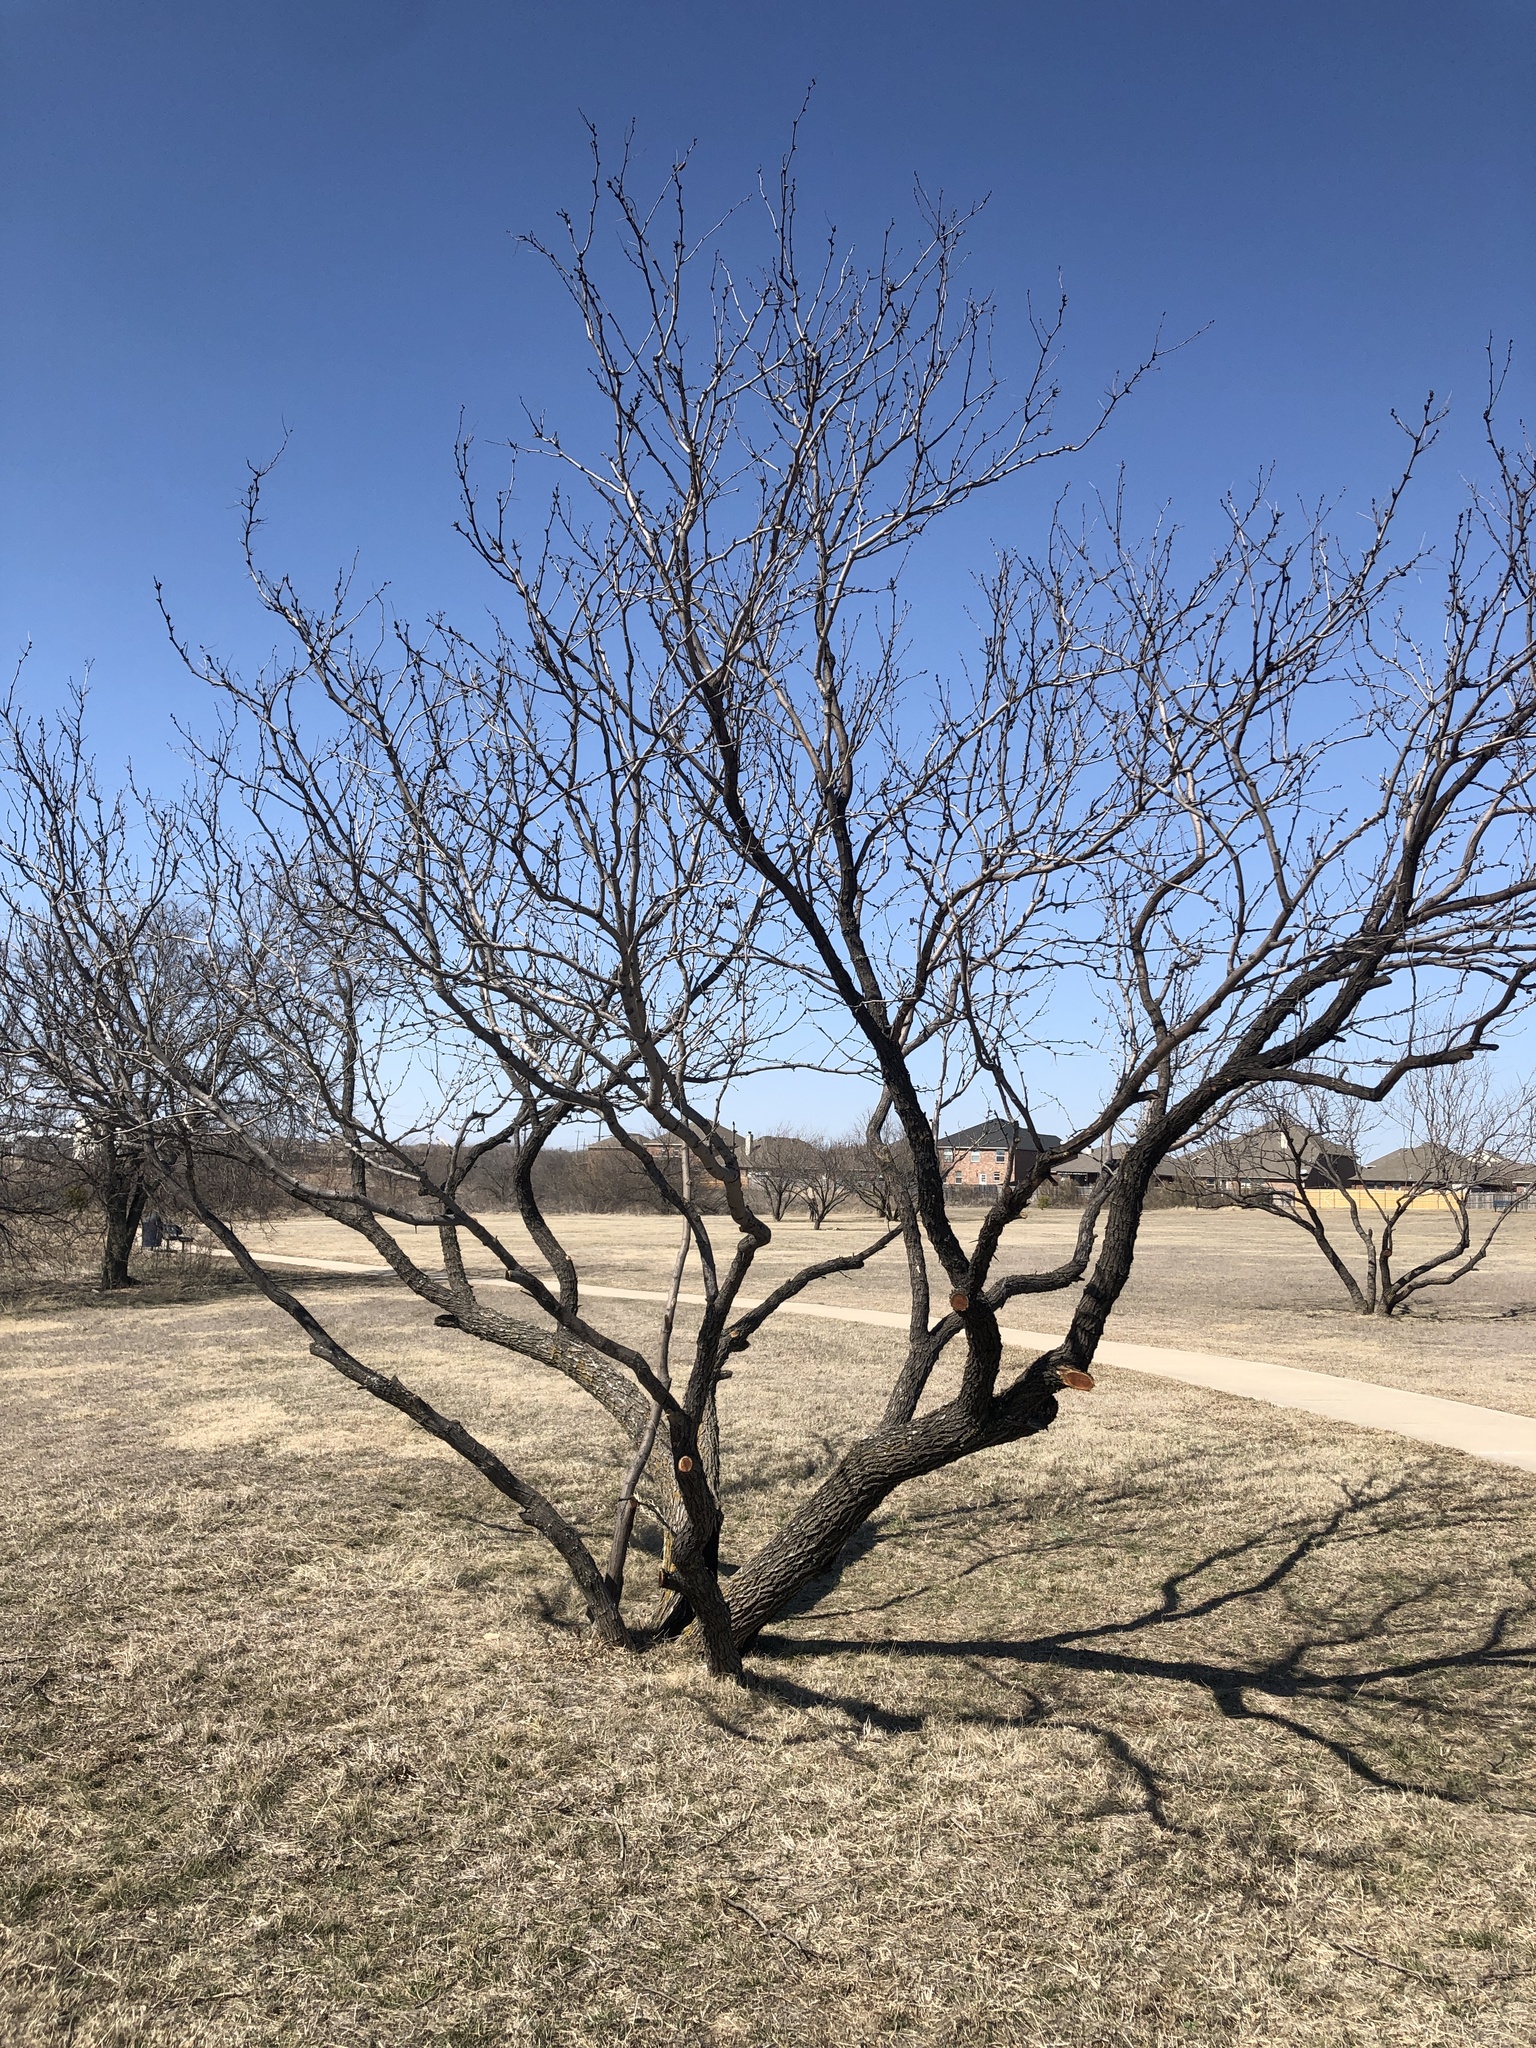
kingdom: Plantae
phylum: Tracheophyta
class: Magnoliopsida
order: Fabales
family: Fabaceae
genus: Prosopis
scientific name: Prosopis glandulosa
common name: Honey mesquite
